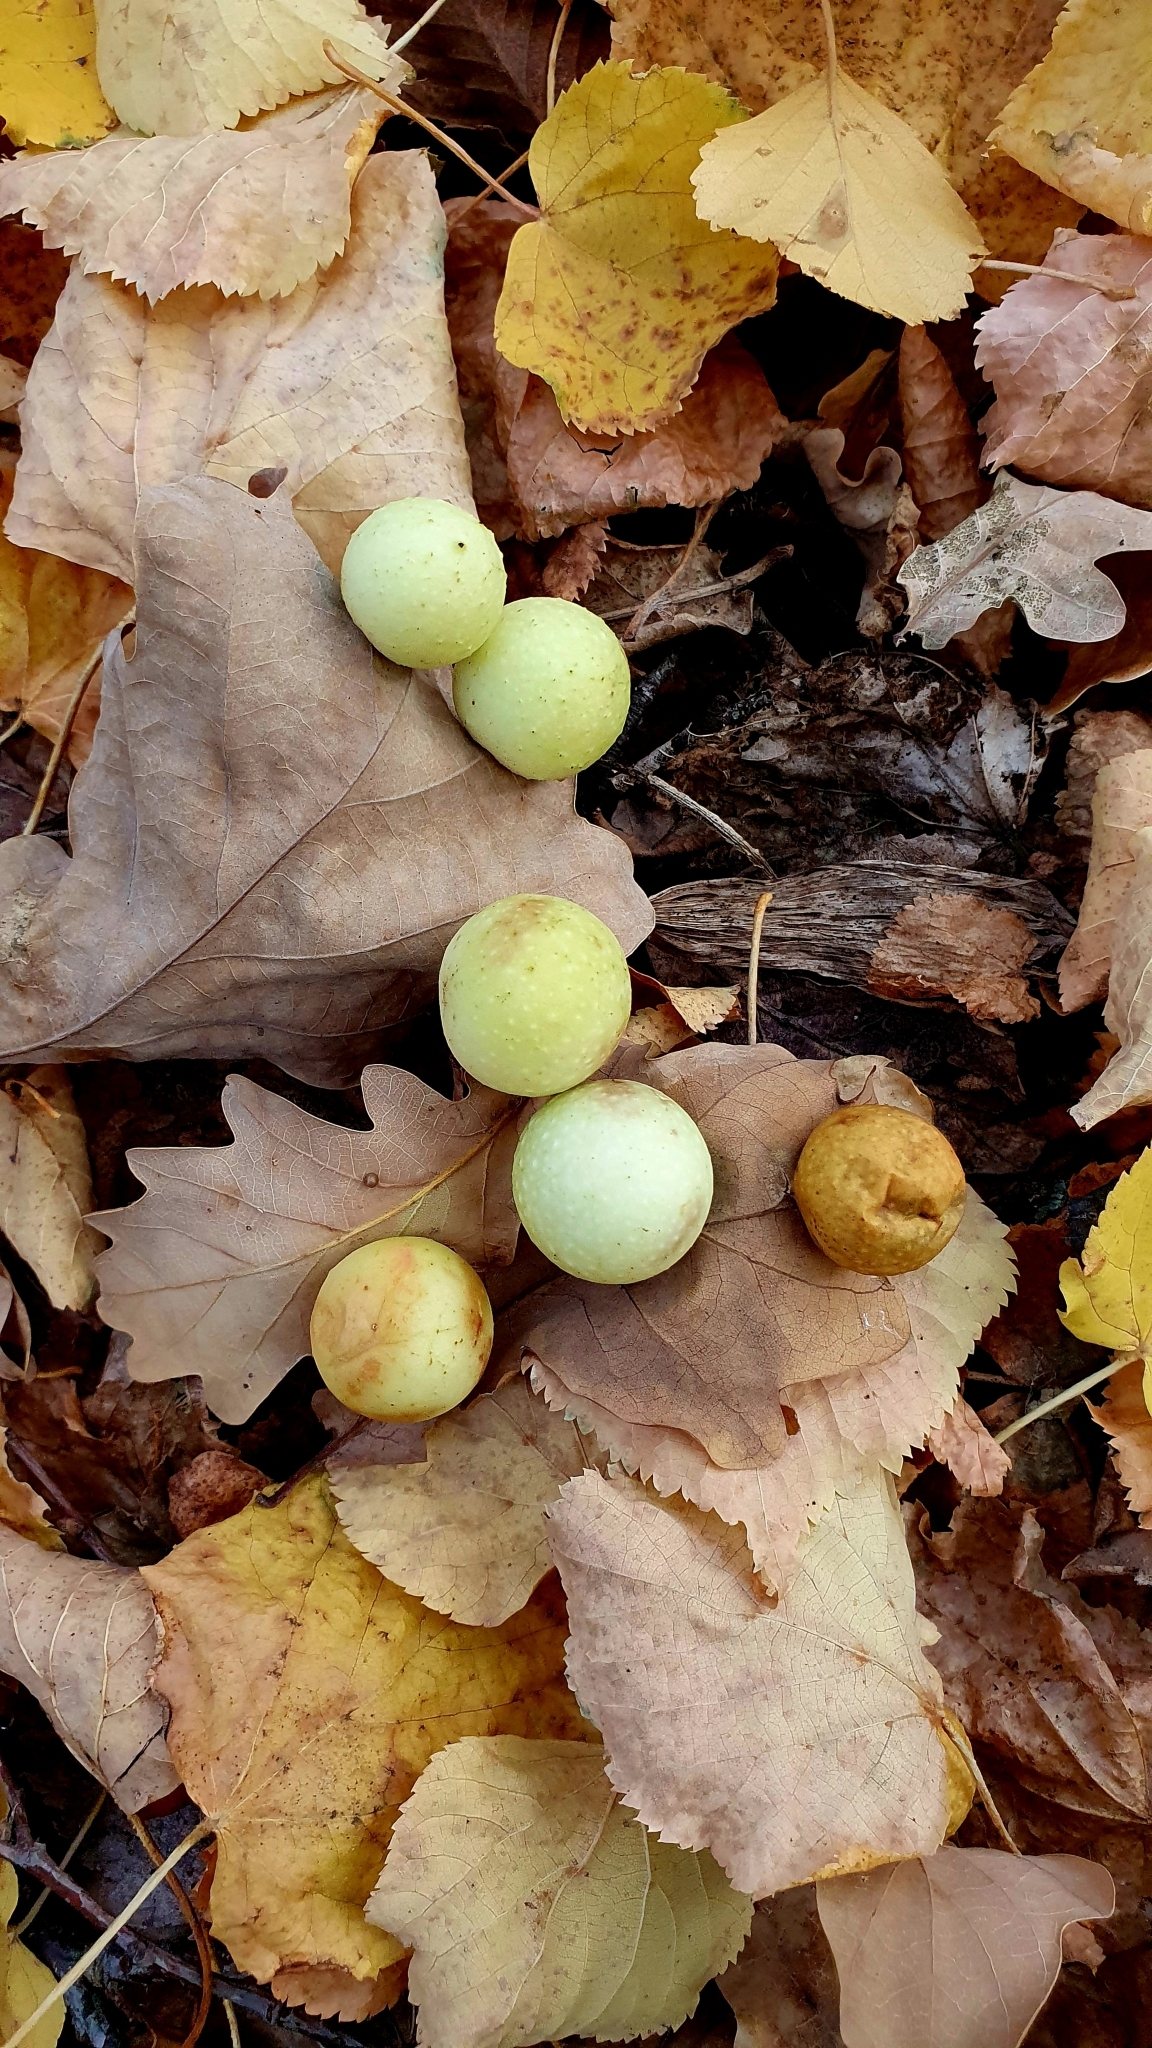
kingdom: Animalia
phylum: Arthropoda
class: Insecta
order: Hymenoptera
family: Cynipidae
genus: Cynips
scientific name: Cynips quercusfolii
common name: Cherry gall
